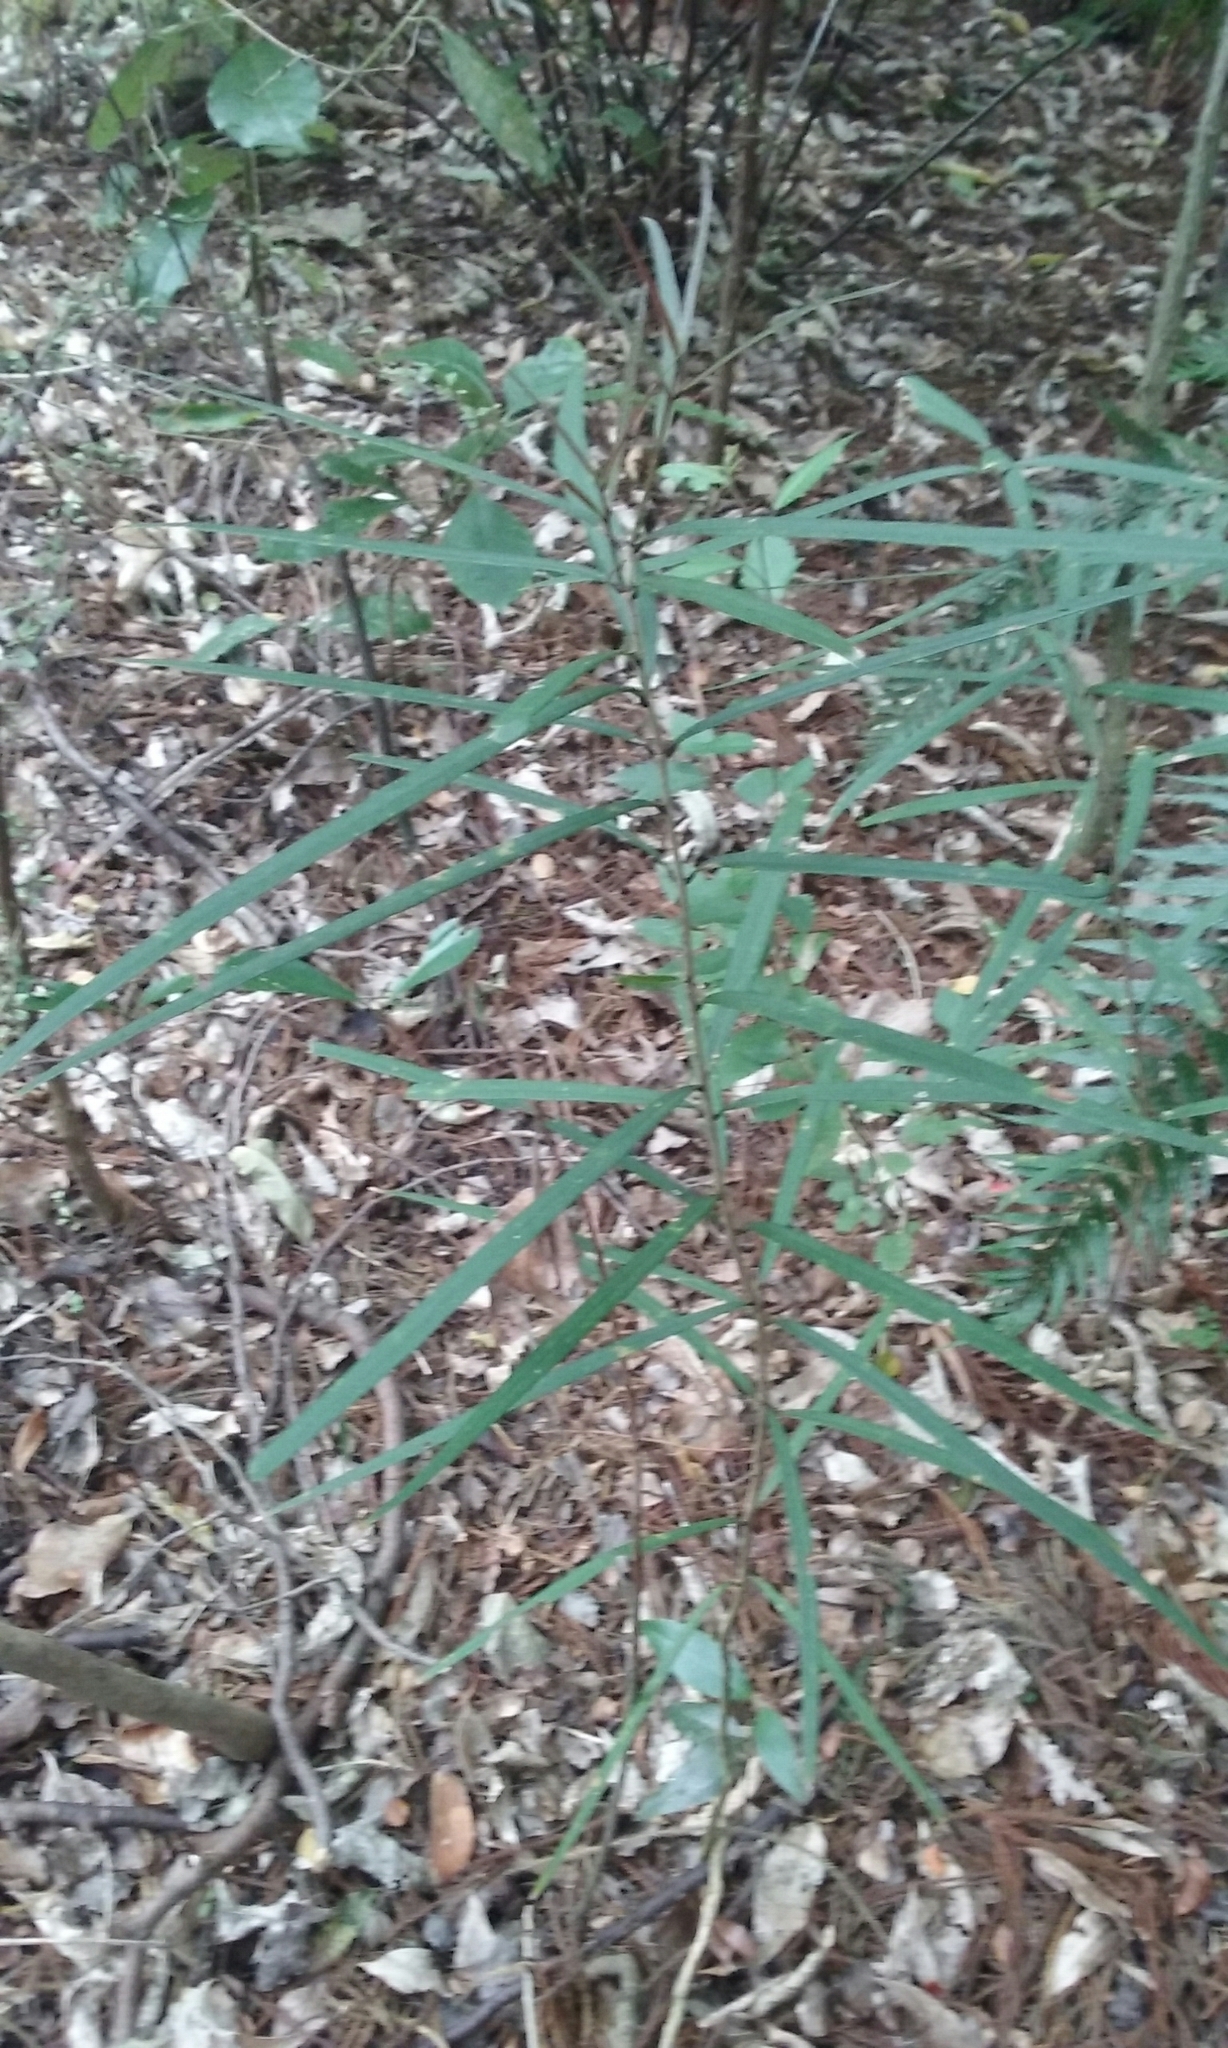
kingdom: Plantae
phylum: Tracheophyta
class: Magnoliopsida
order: Lamiales
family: Oleaceae
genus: Nestegis
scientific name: Nestegis cunninghamii
